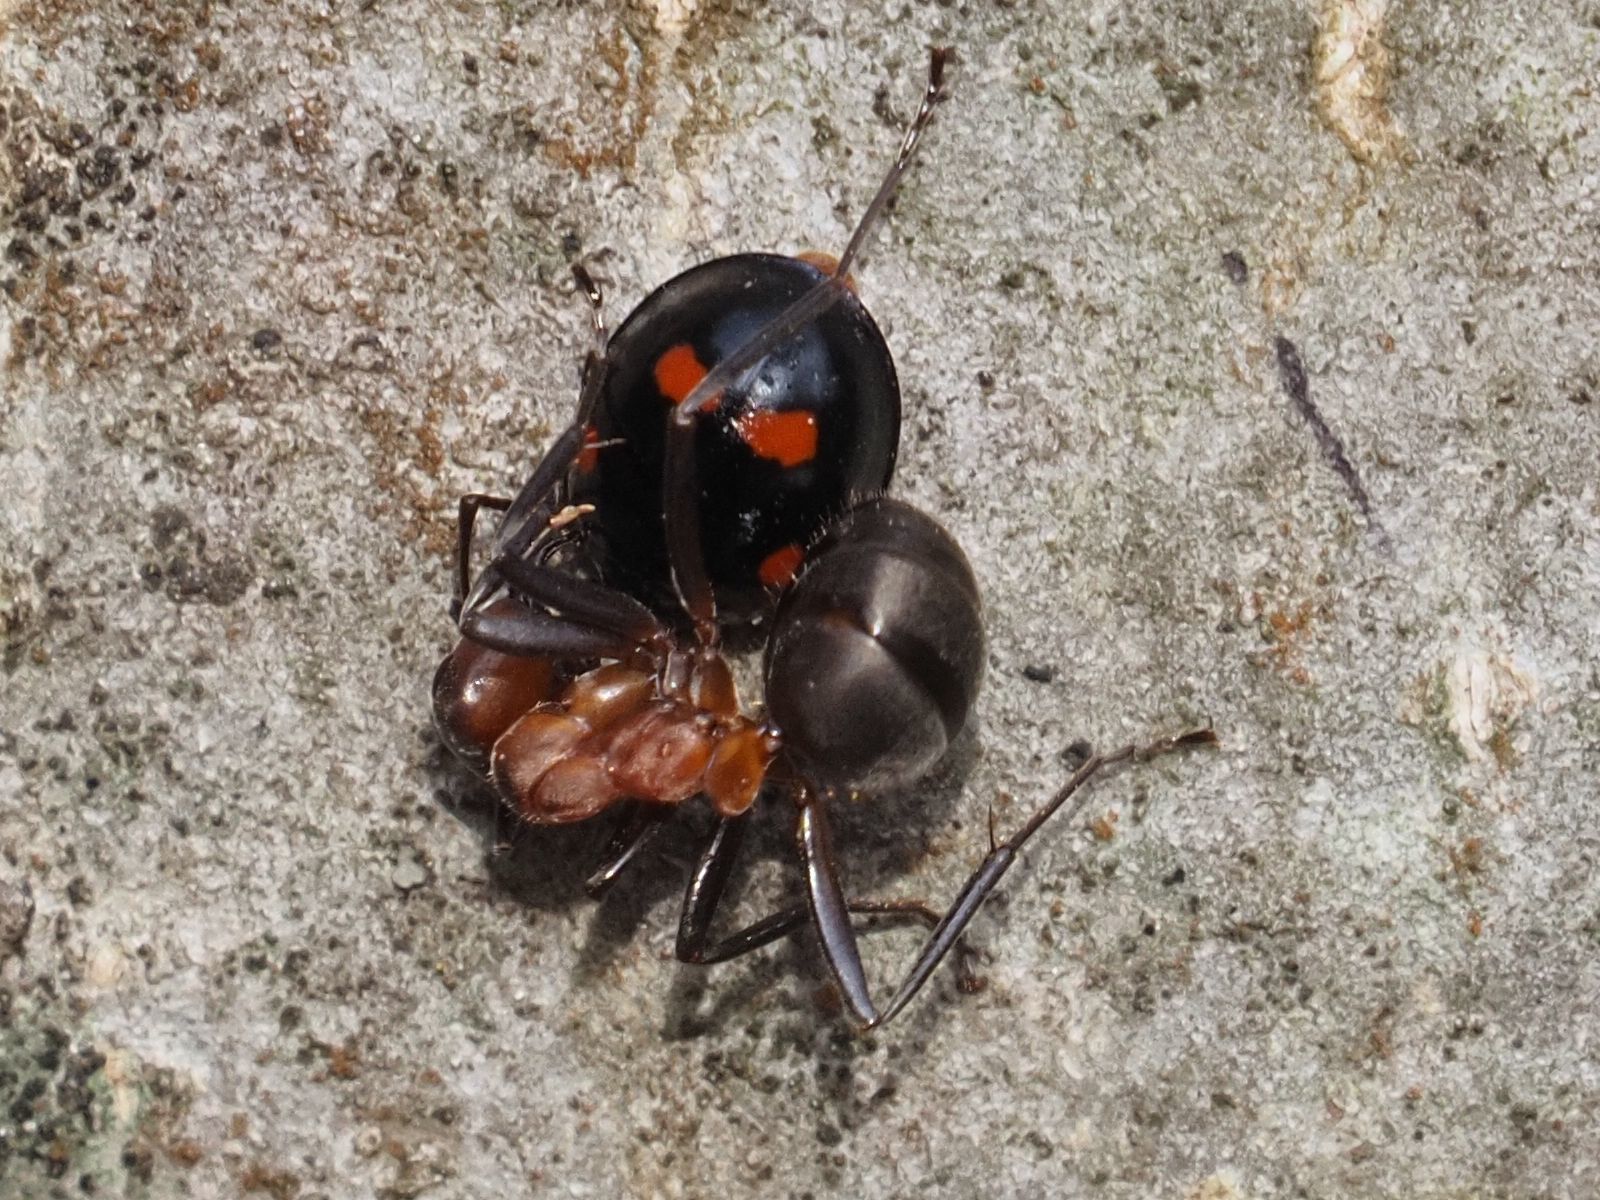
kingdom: Animalia
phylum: Arthropoda
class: Insecta
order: Hymenoptera
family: Formicidae
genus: Formica
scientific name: Formica
